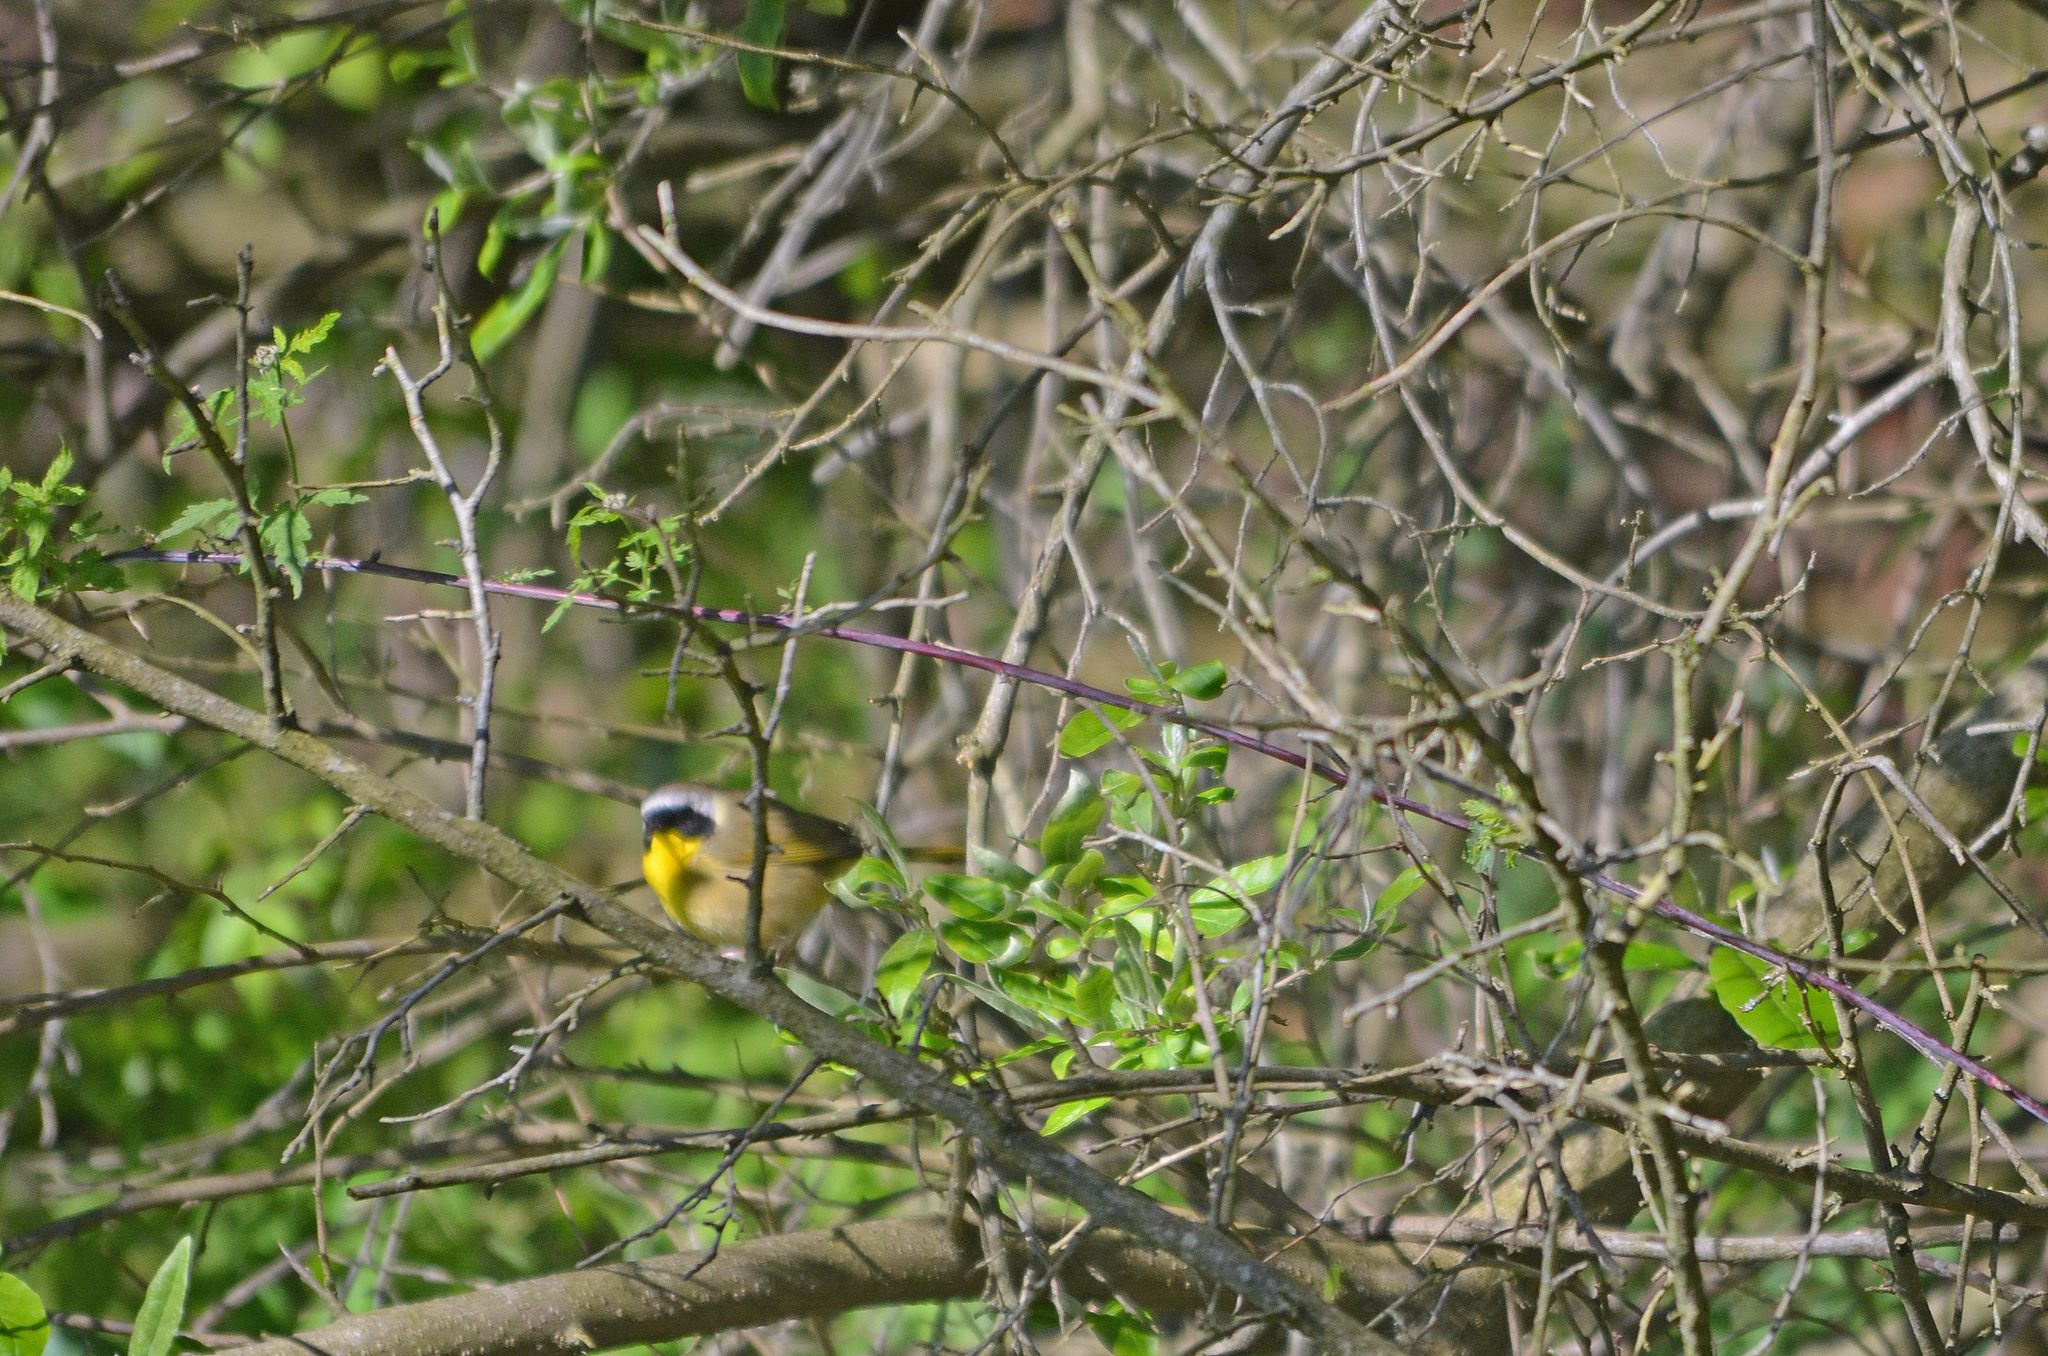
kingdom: Animalia
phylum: Chordata
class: Aves
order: Passeriformes
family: Parulidae
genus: Geothlypis
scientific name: Geothlypis trichas
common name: Common yellowthroat
